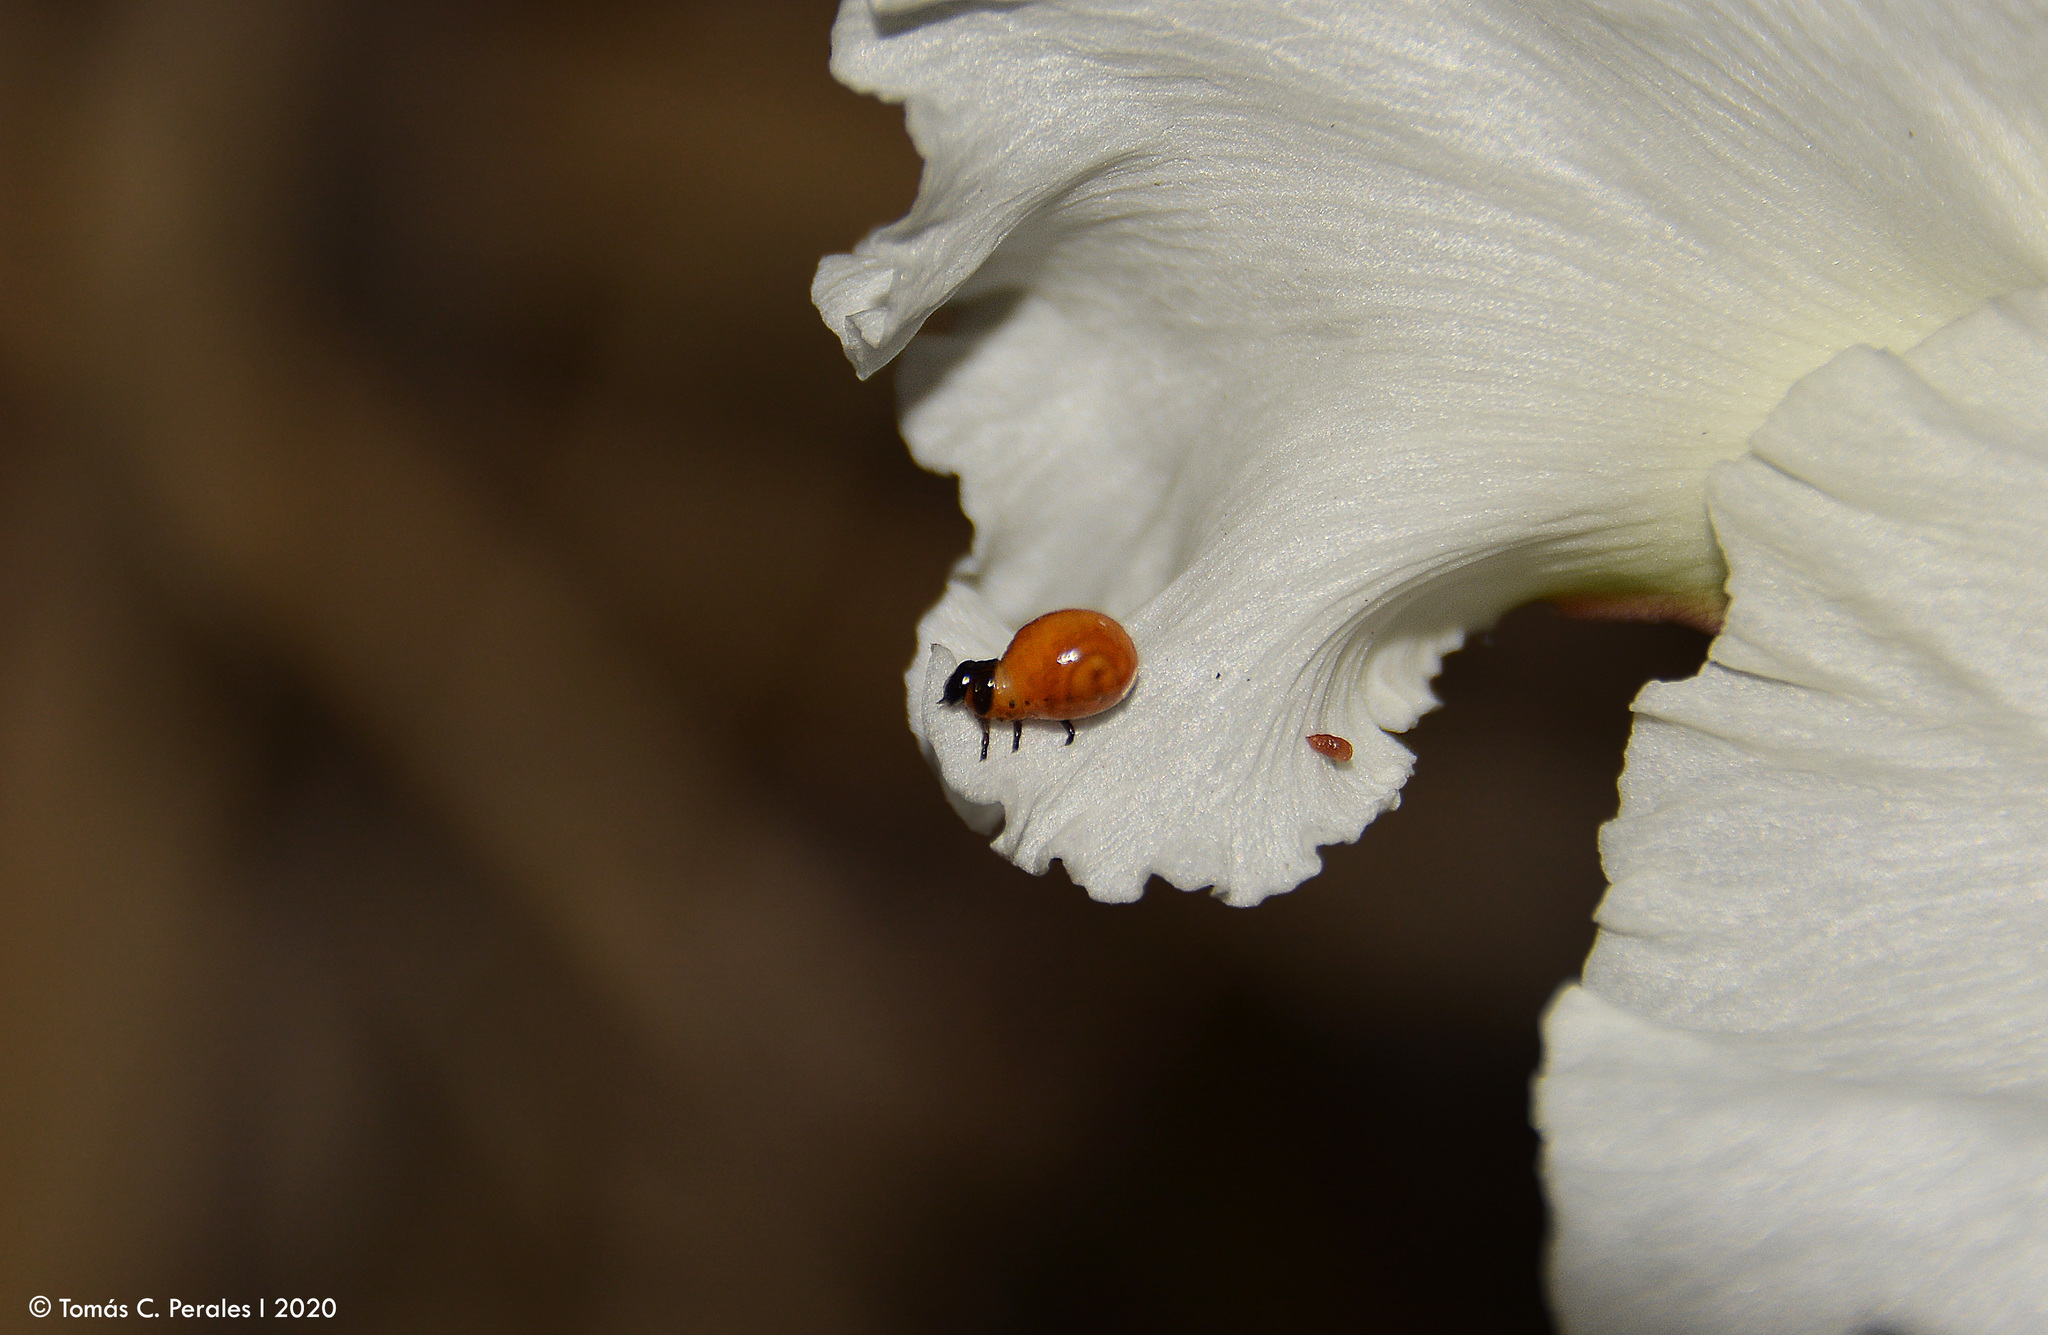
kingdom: Plantae
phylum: Tracheophyta
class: Magnoliopsida
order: Gentianales
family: Apocynaceae
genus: Mandevilla
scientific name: Mandevilla petraea
